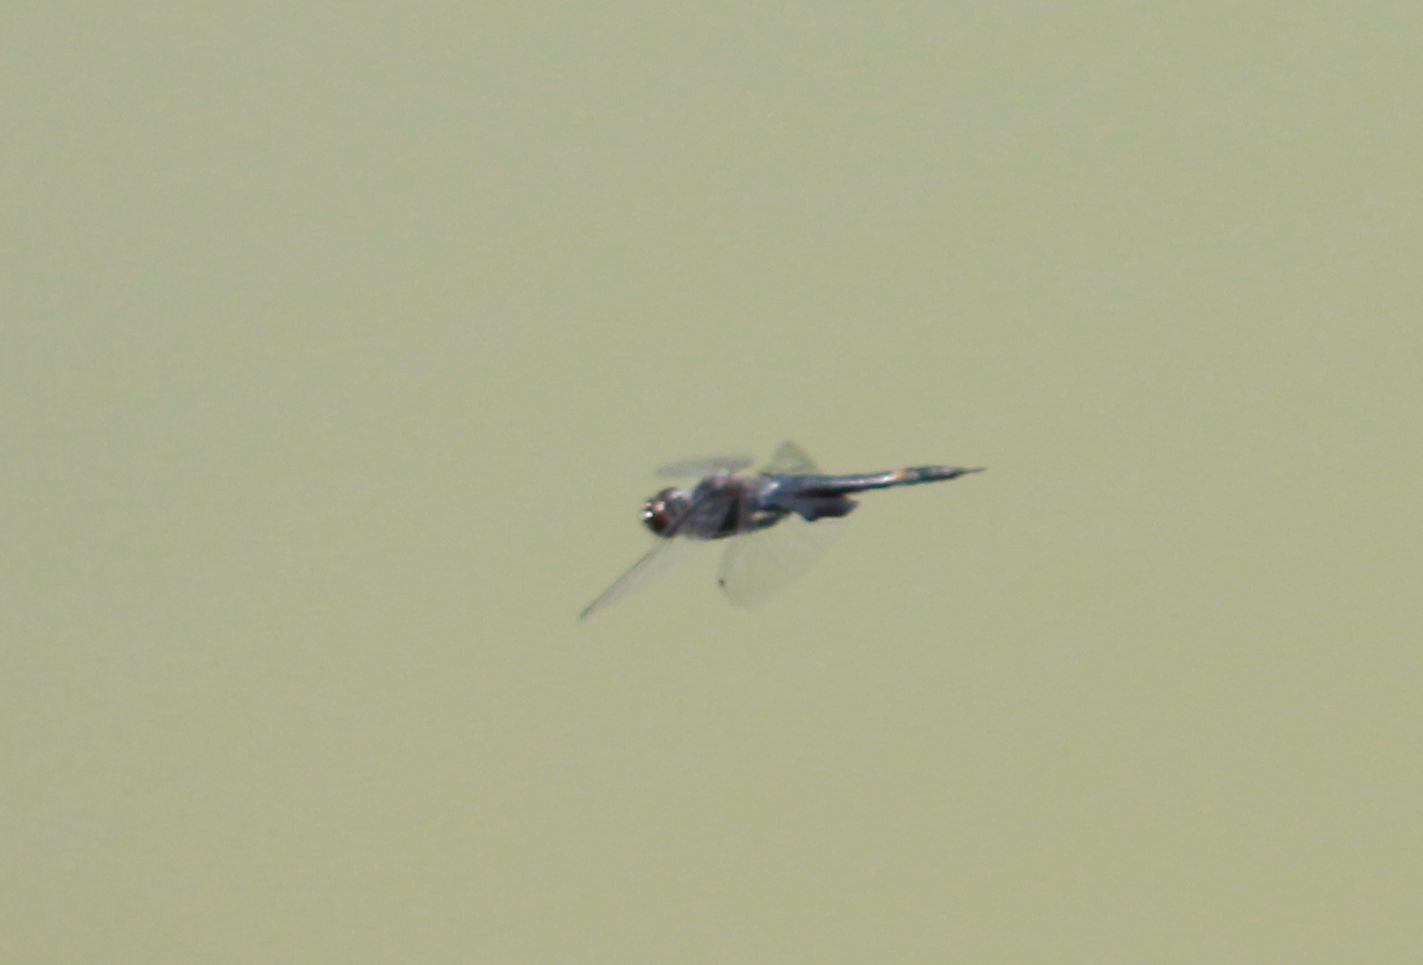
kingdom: Animalia
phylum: Arthropoda
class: Insecta
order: Odonata
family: Libellulidae
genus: Tramea
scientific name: Tramea lacerata
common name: Black saddlebags
